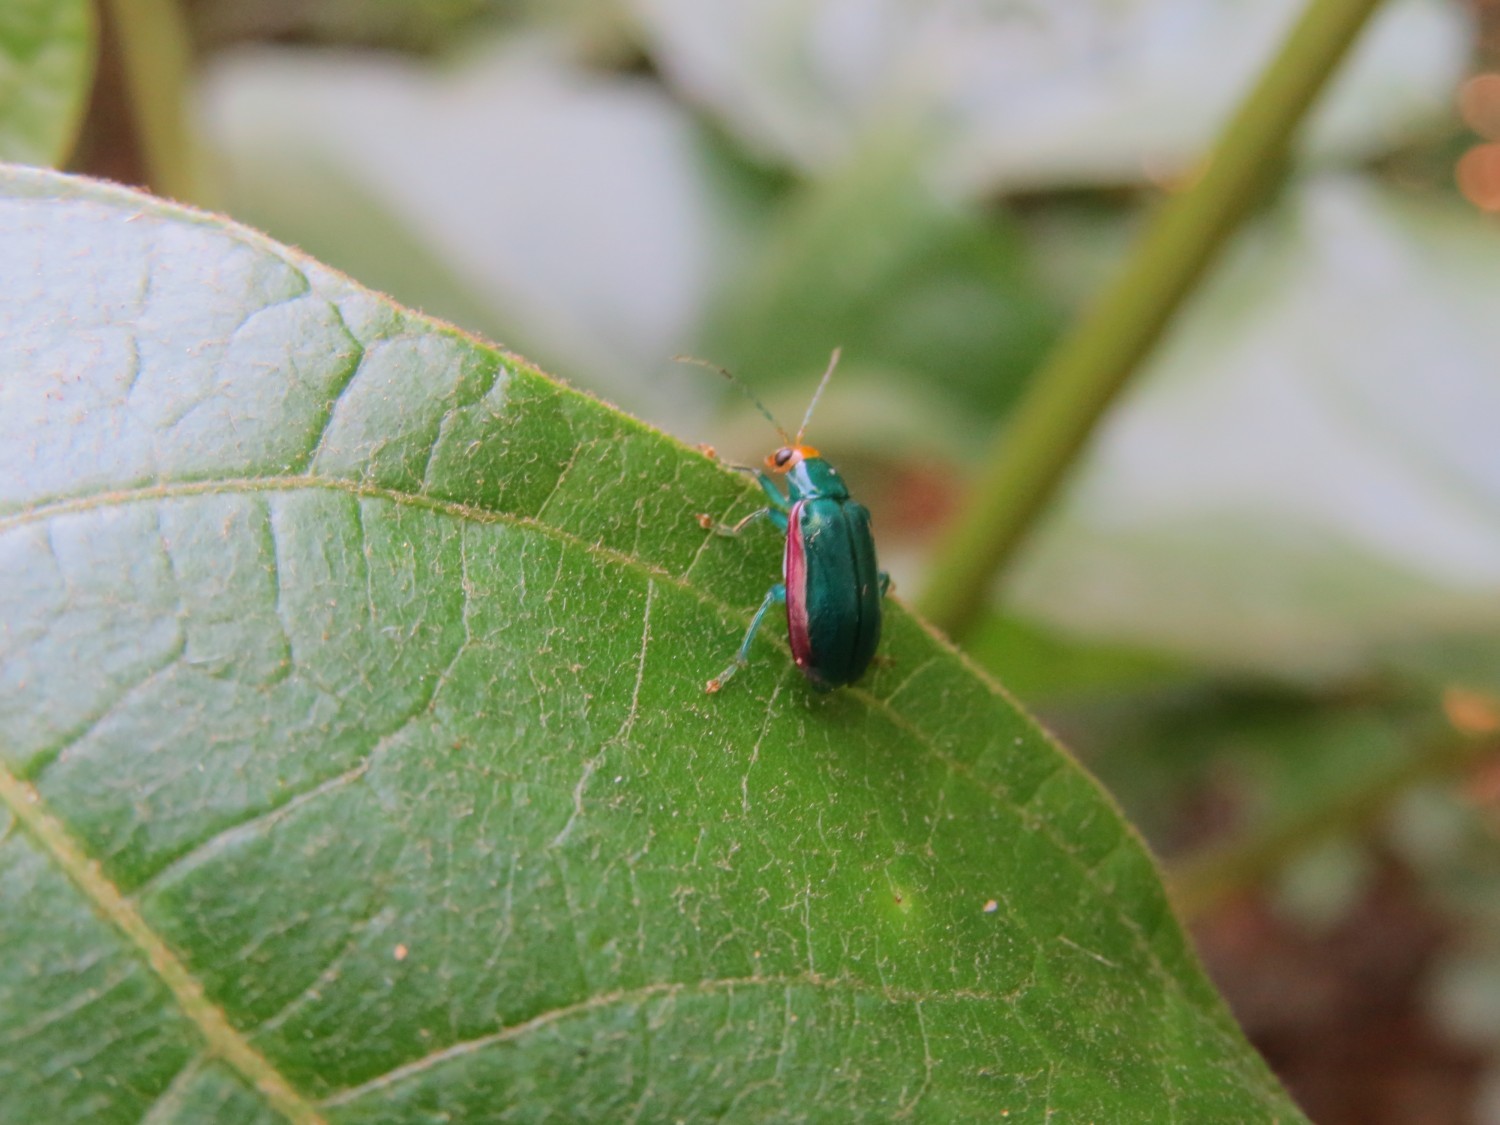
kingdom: Animalia
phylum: Arthropoda
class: Insecta
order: Coleoptera
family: Chrysomelidae
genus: Diabrotica
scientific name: Diabrotica
